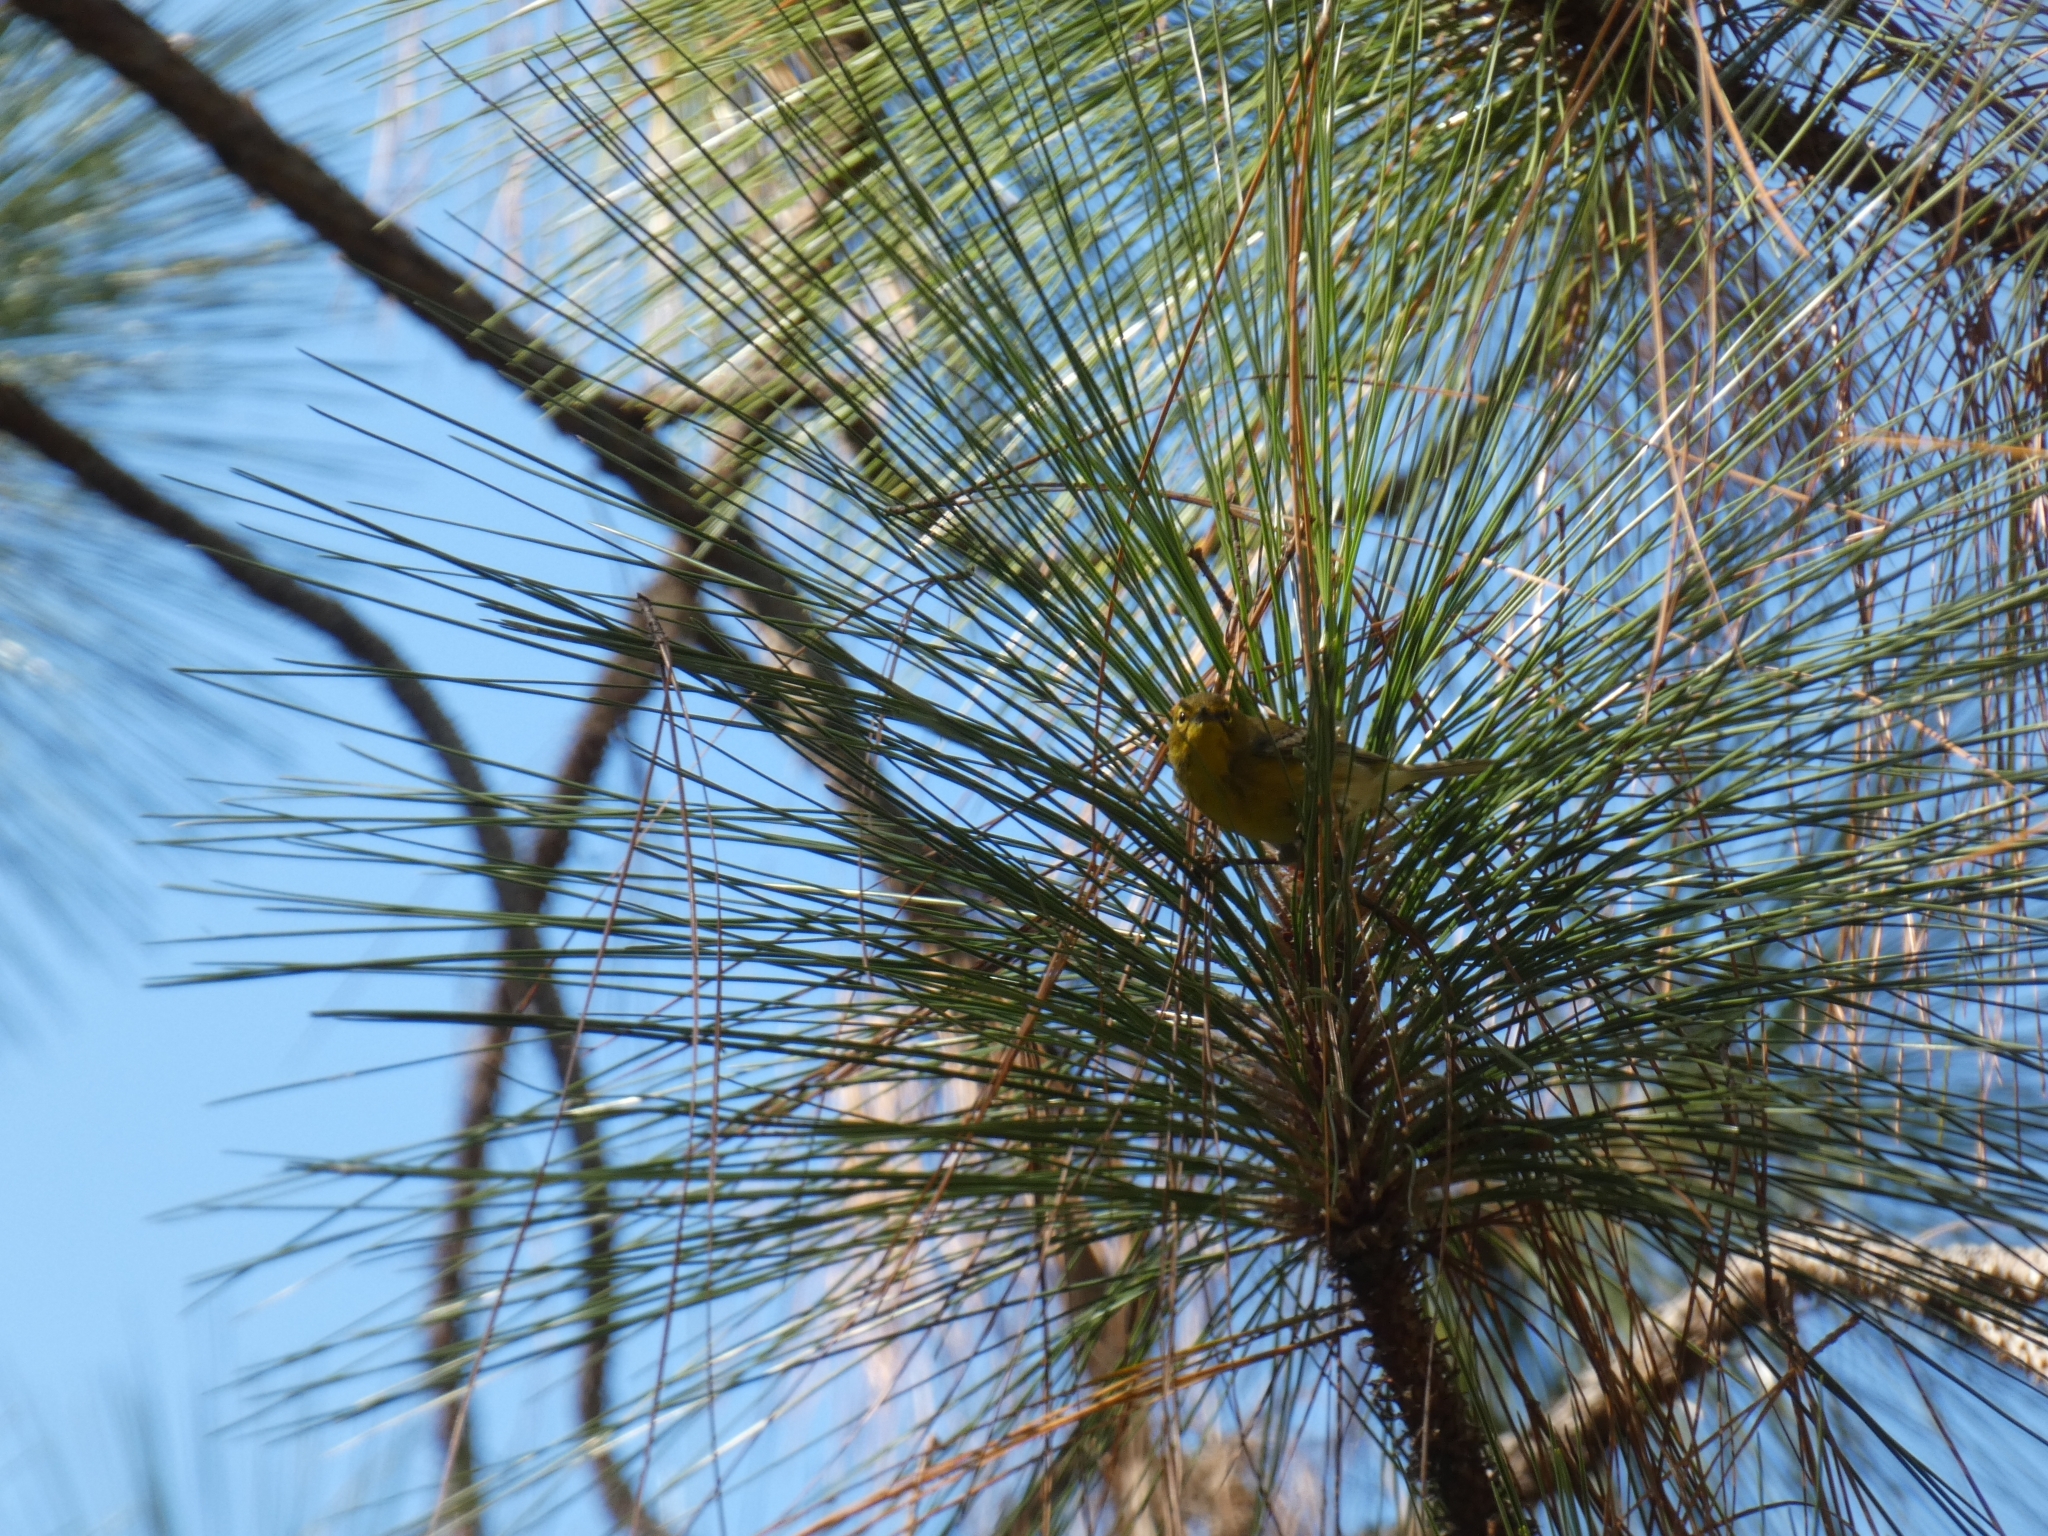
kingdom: Animalia
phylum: Chordata
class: Aves
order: Passeriformes
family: Parulidae
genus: Setophaga
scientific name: Setophaga pinus
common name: Pine warbler
